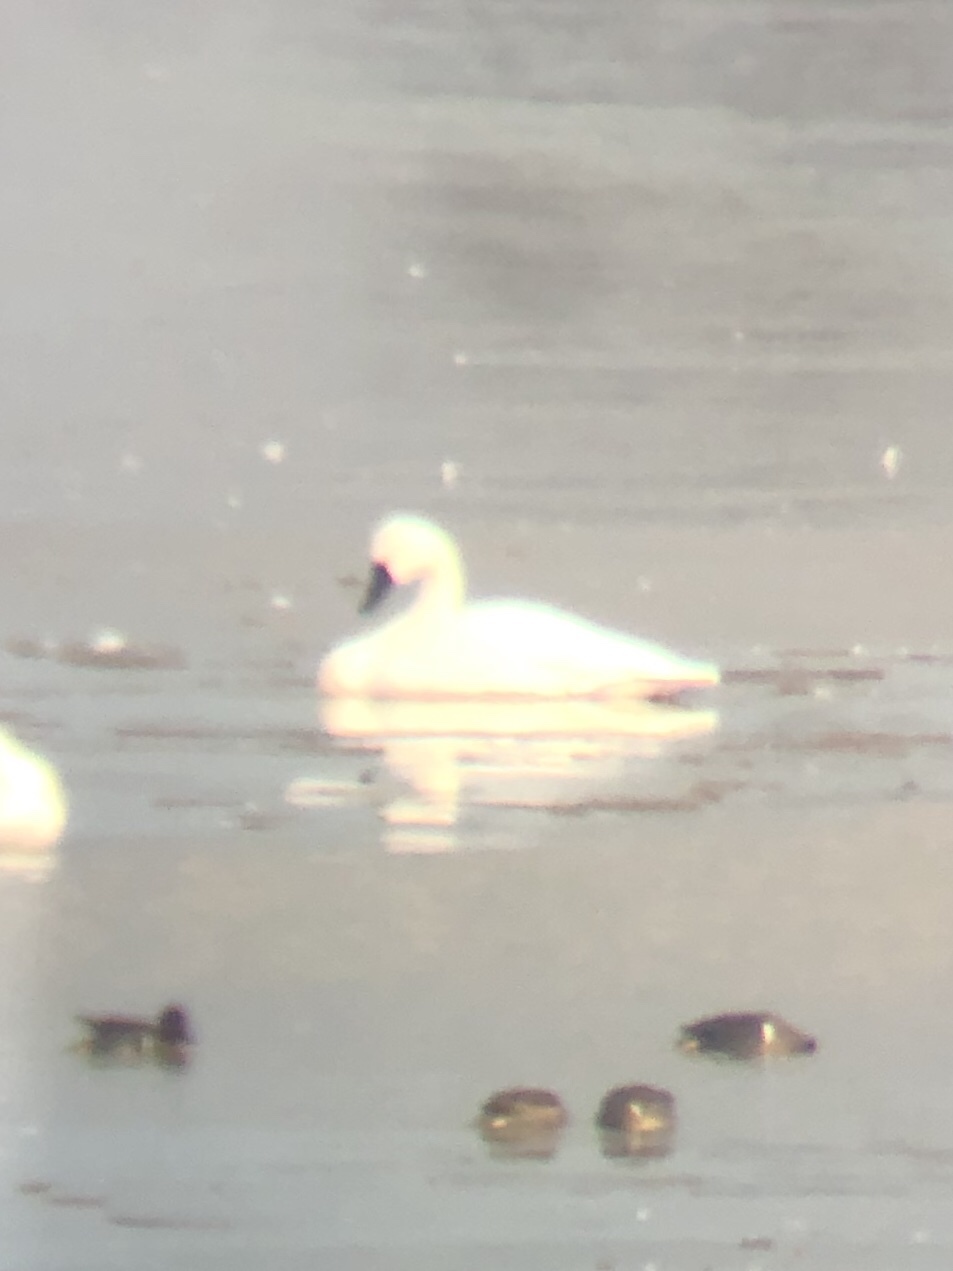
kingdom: Animalia
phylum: Chordata
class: Aves
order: Anseriformes
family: Anatidae
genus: Cygnus
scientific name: Cygnus columbianus
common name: Tundra swan
